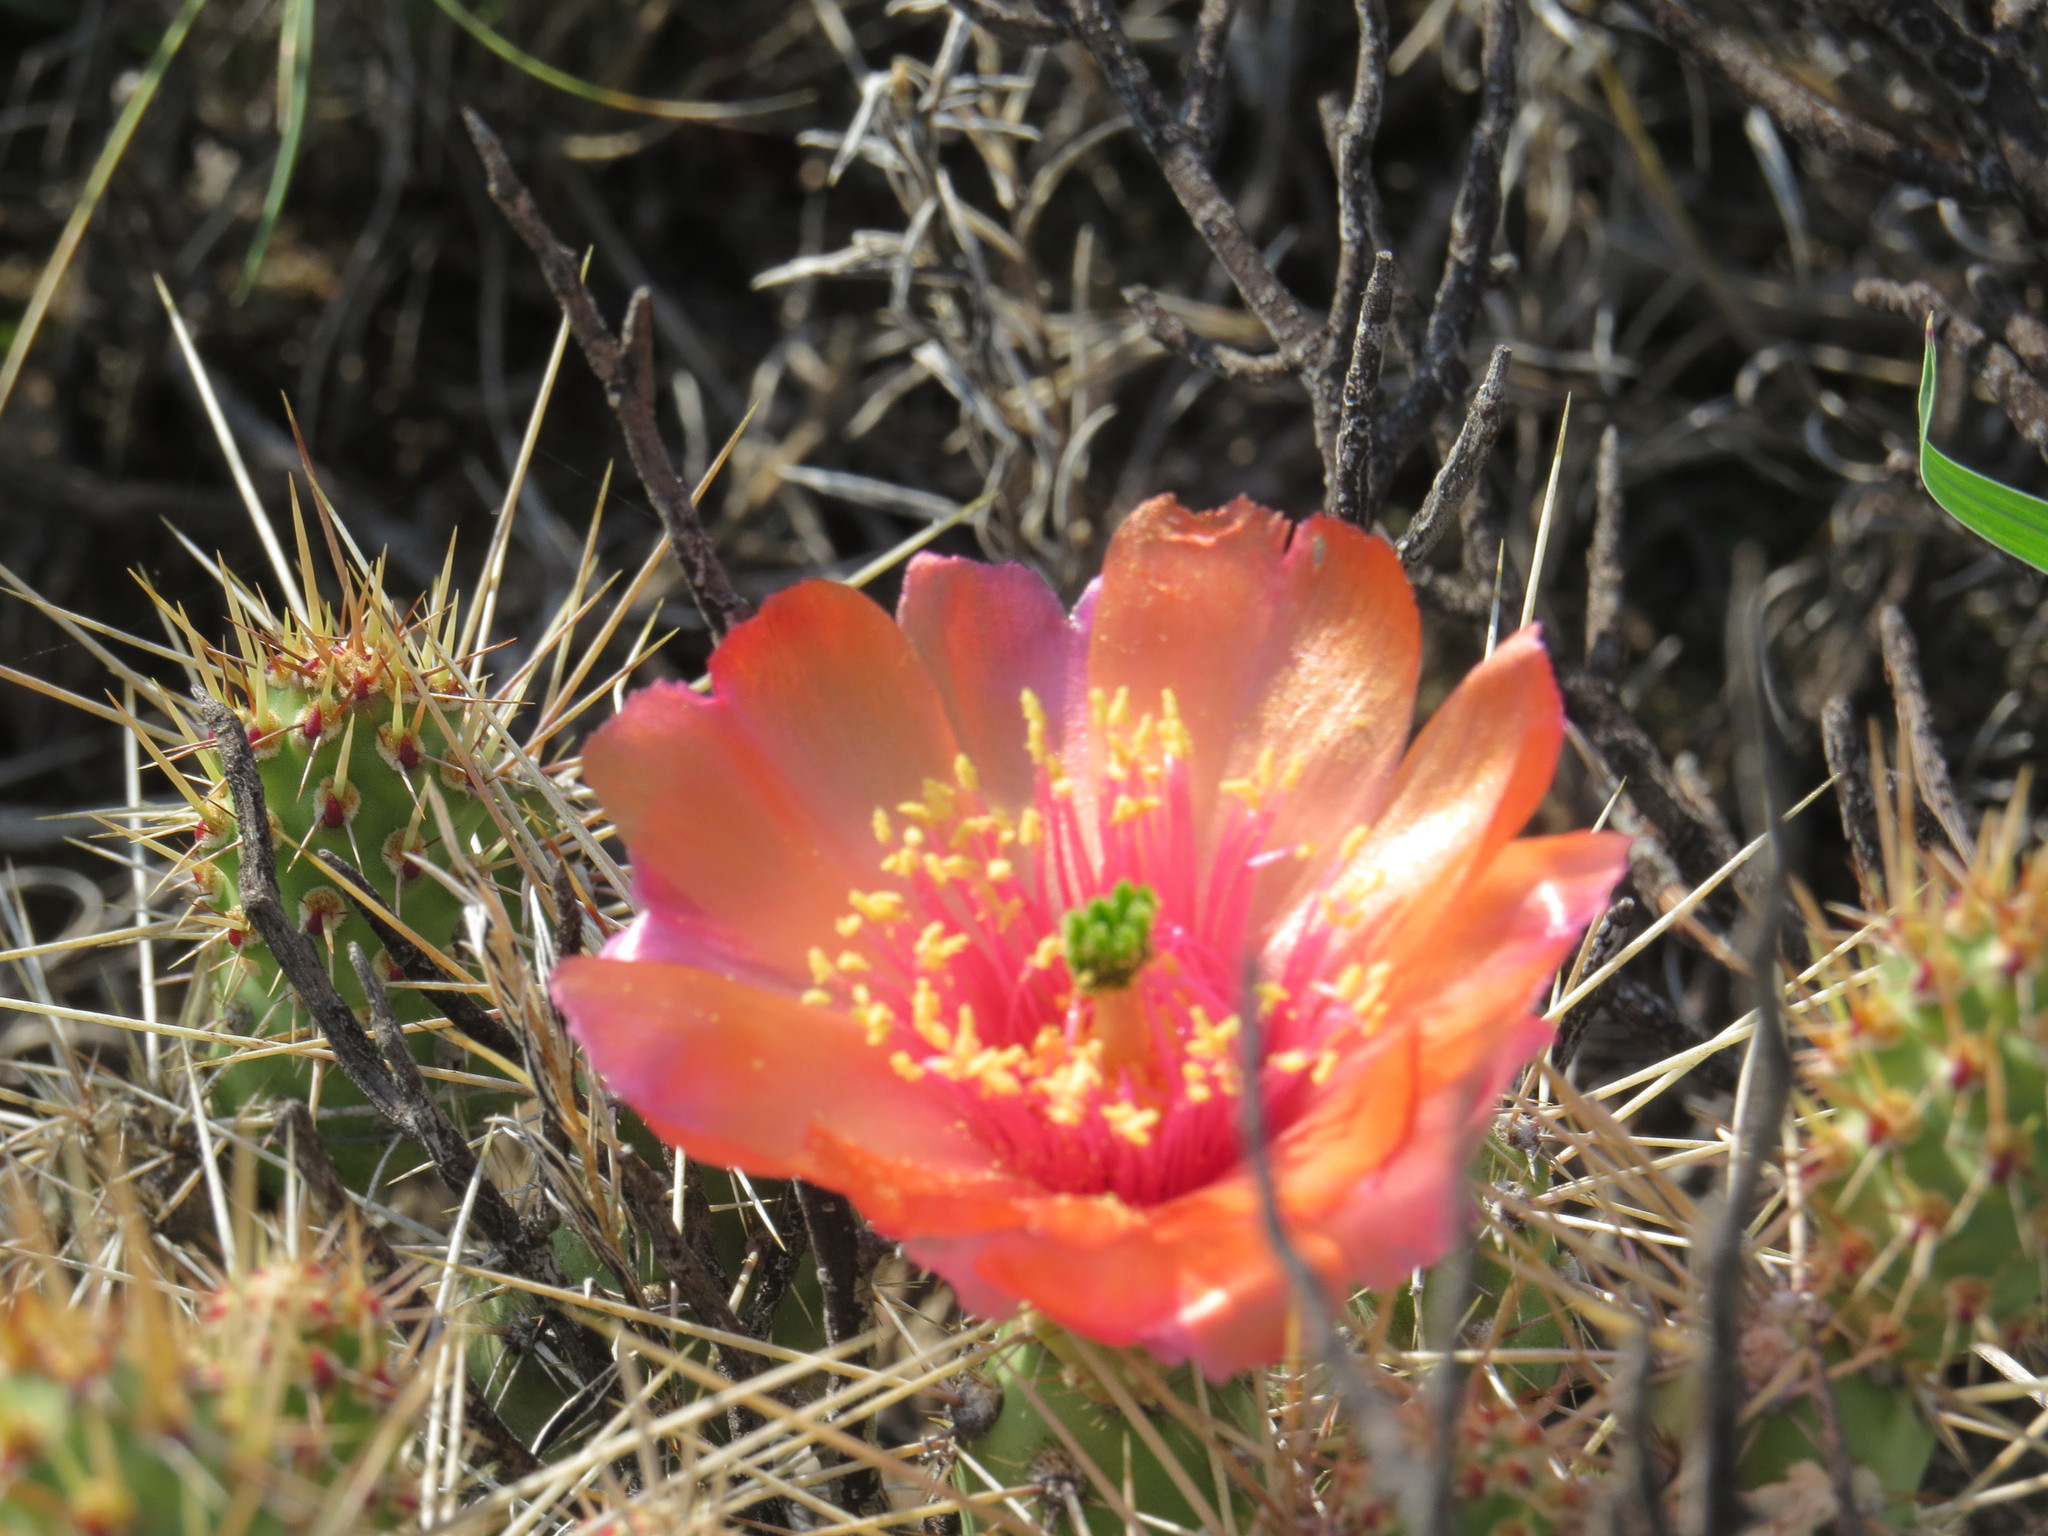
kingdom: Plantae
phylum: Tracheophyta
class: Magnoliopsida
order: Caryophyllales
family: Cactaceae
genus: Airampoa
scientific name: Airampoa corrugata
